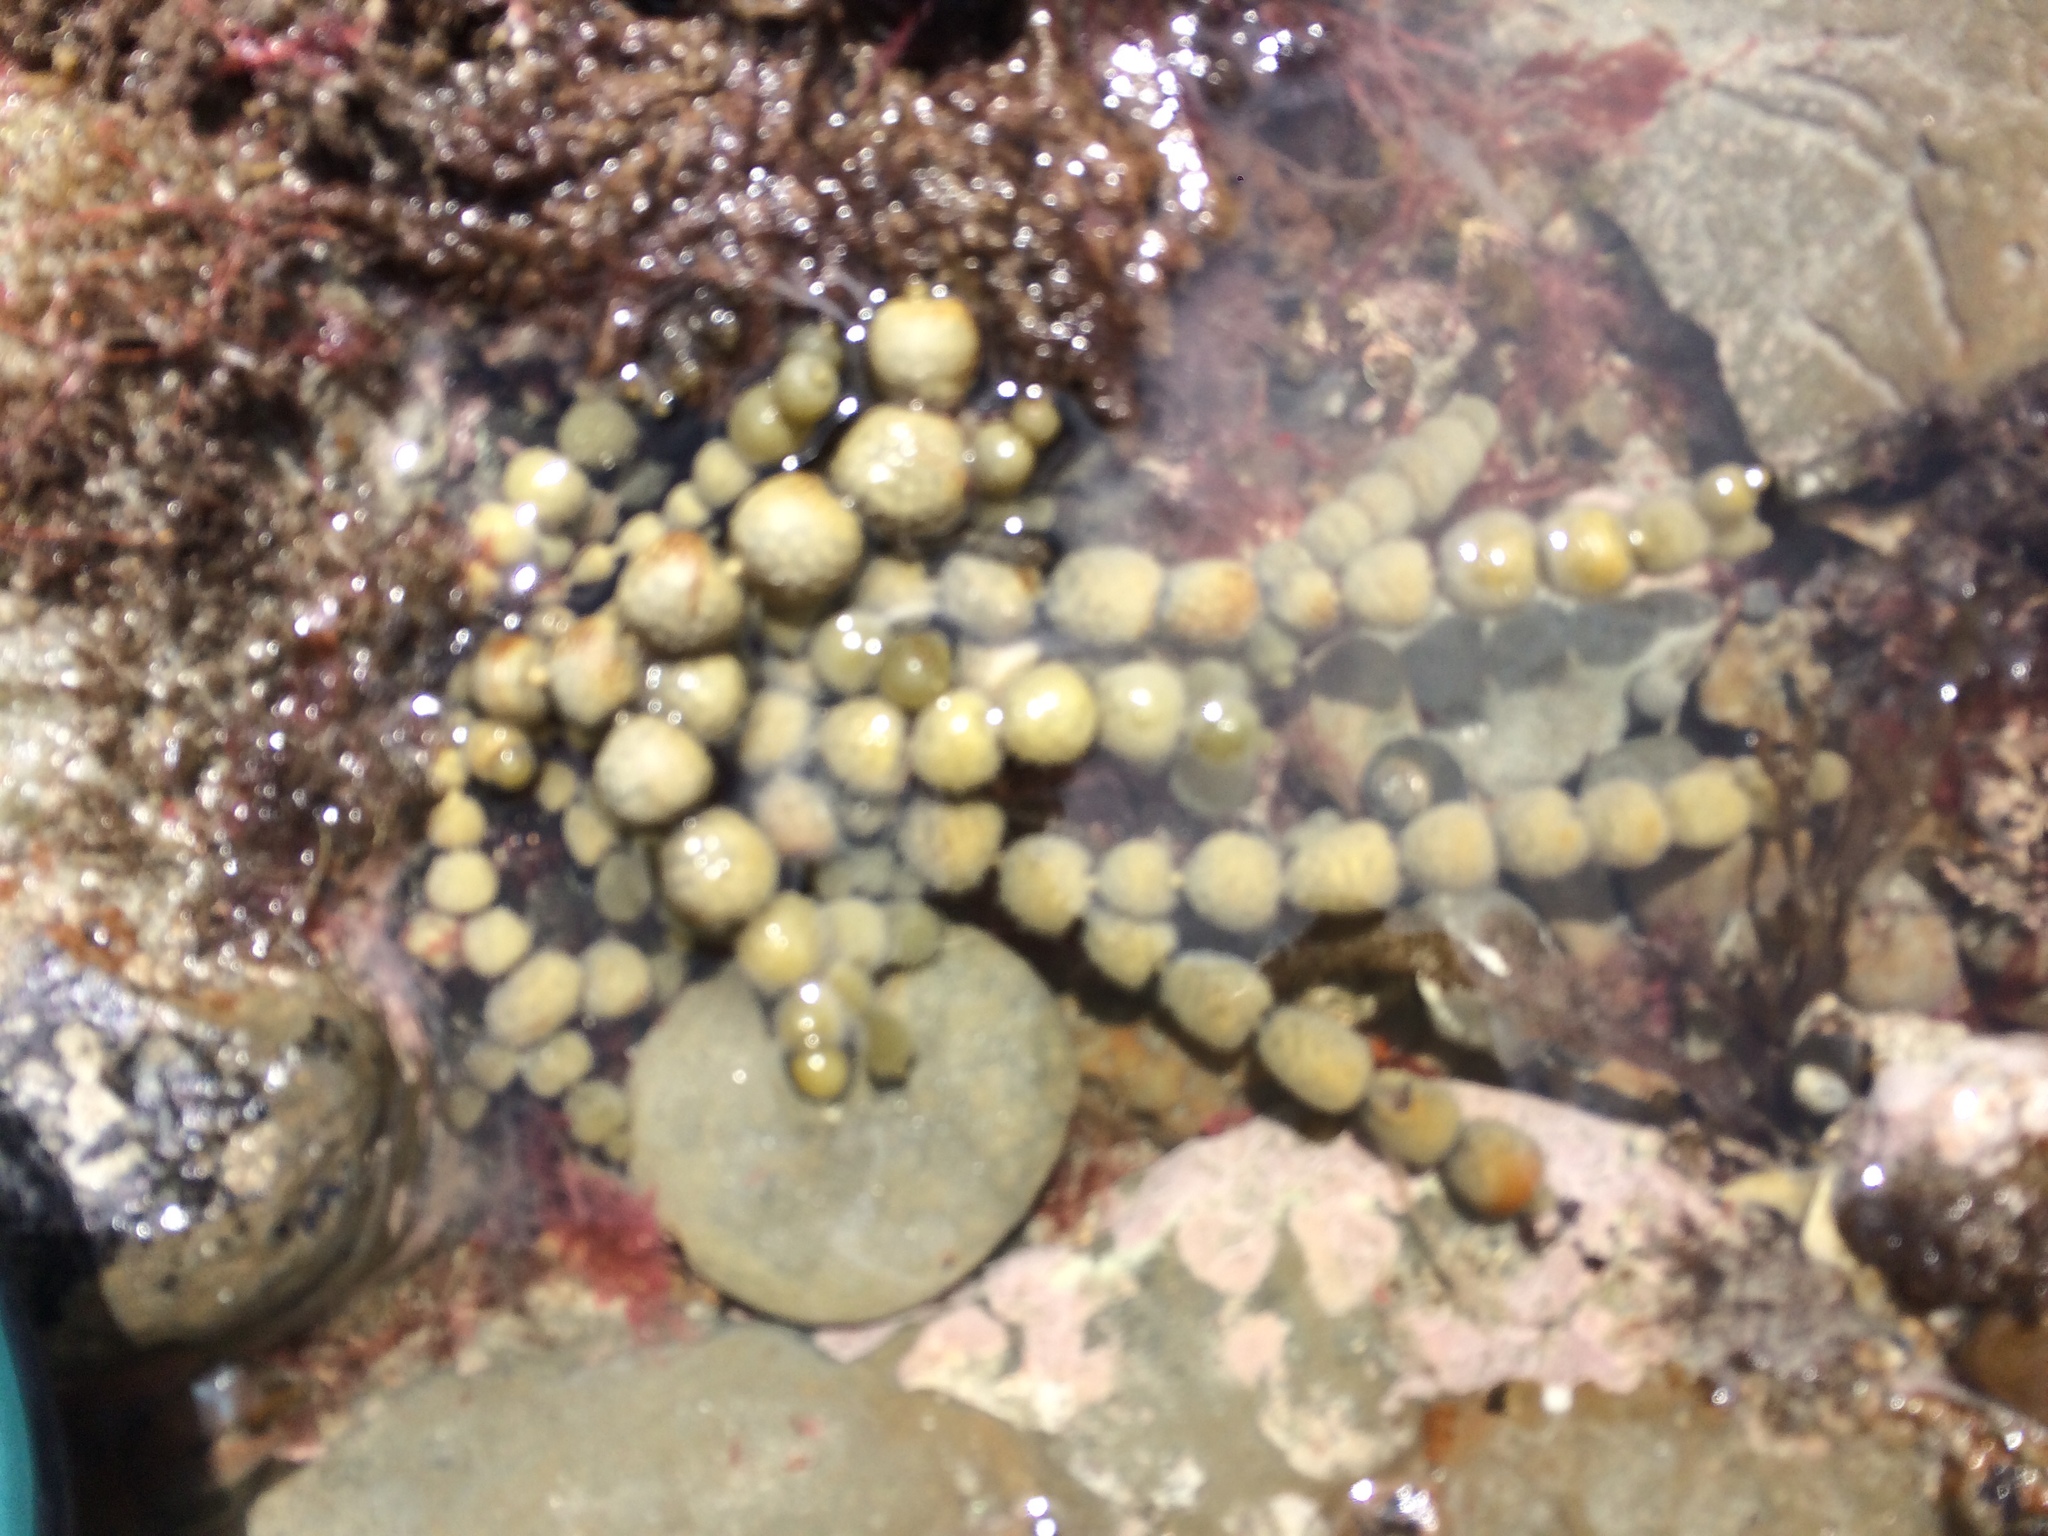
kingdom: Chromista
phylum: Ochrophyta
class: Phaeophyceae
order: Fucales
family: Hormosiraceae
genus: Hormosira
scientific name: Hormosira banksii
